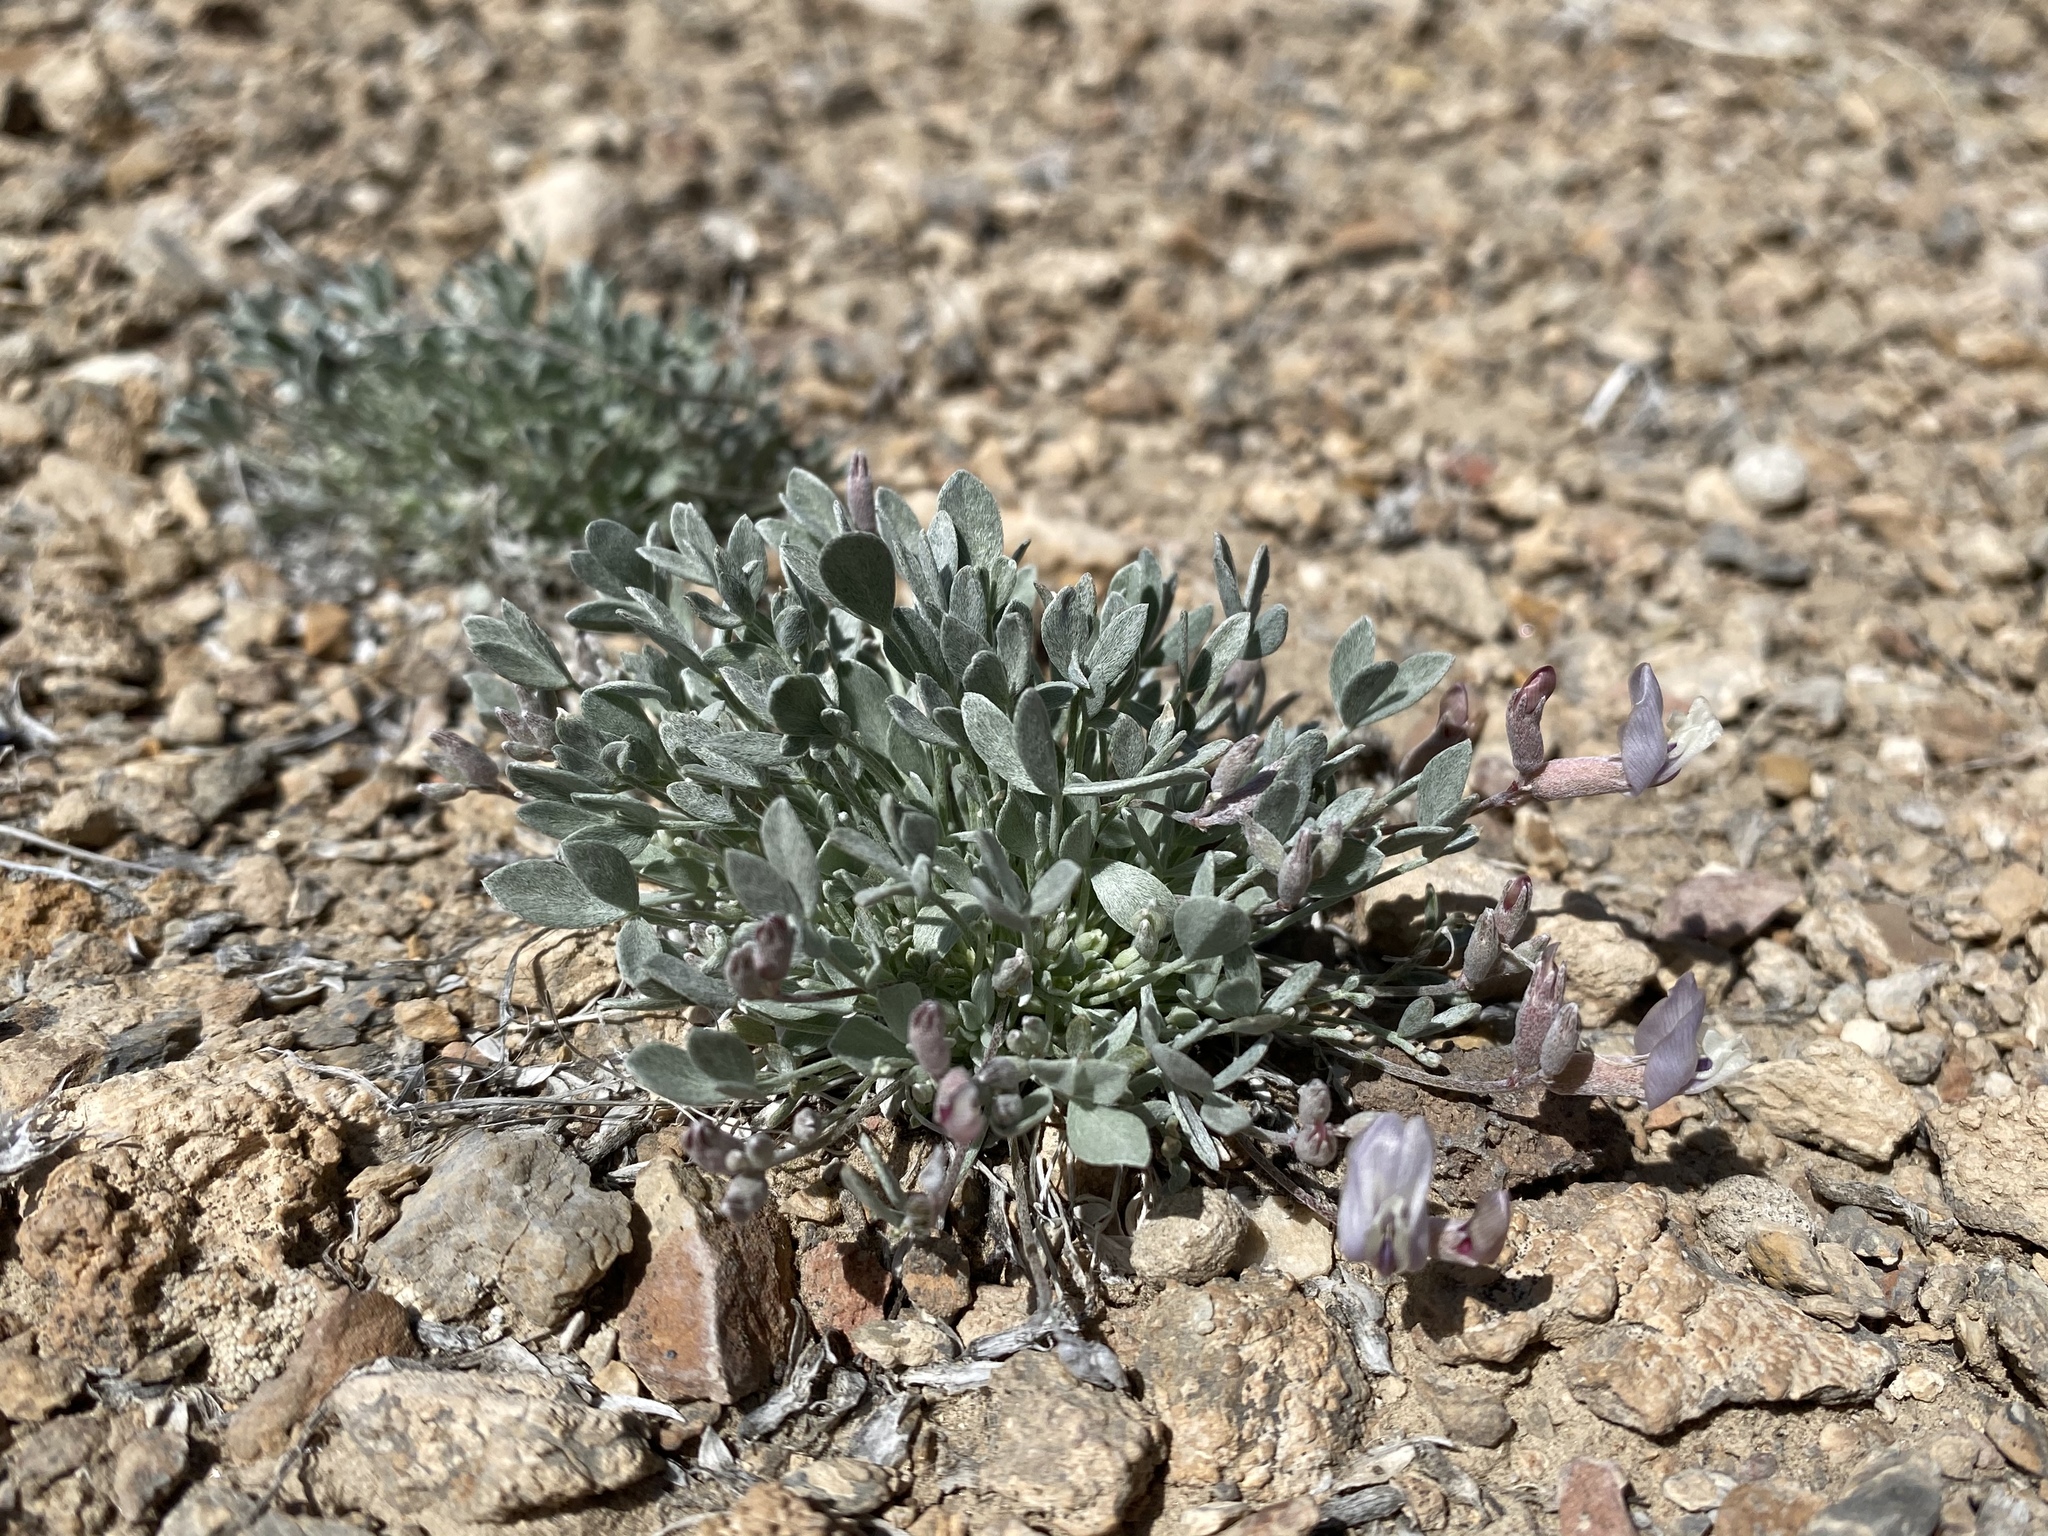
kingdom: Plantae
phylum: Tracheophyta
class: Magnoliopsida
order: Fabales
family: Fabaceae
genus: Astragalus
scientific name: Astragalus calycosus
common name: King's milkvetch
